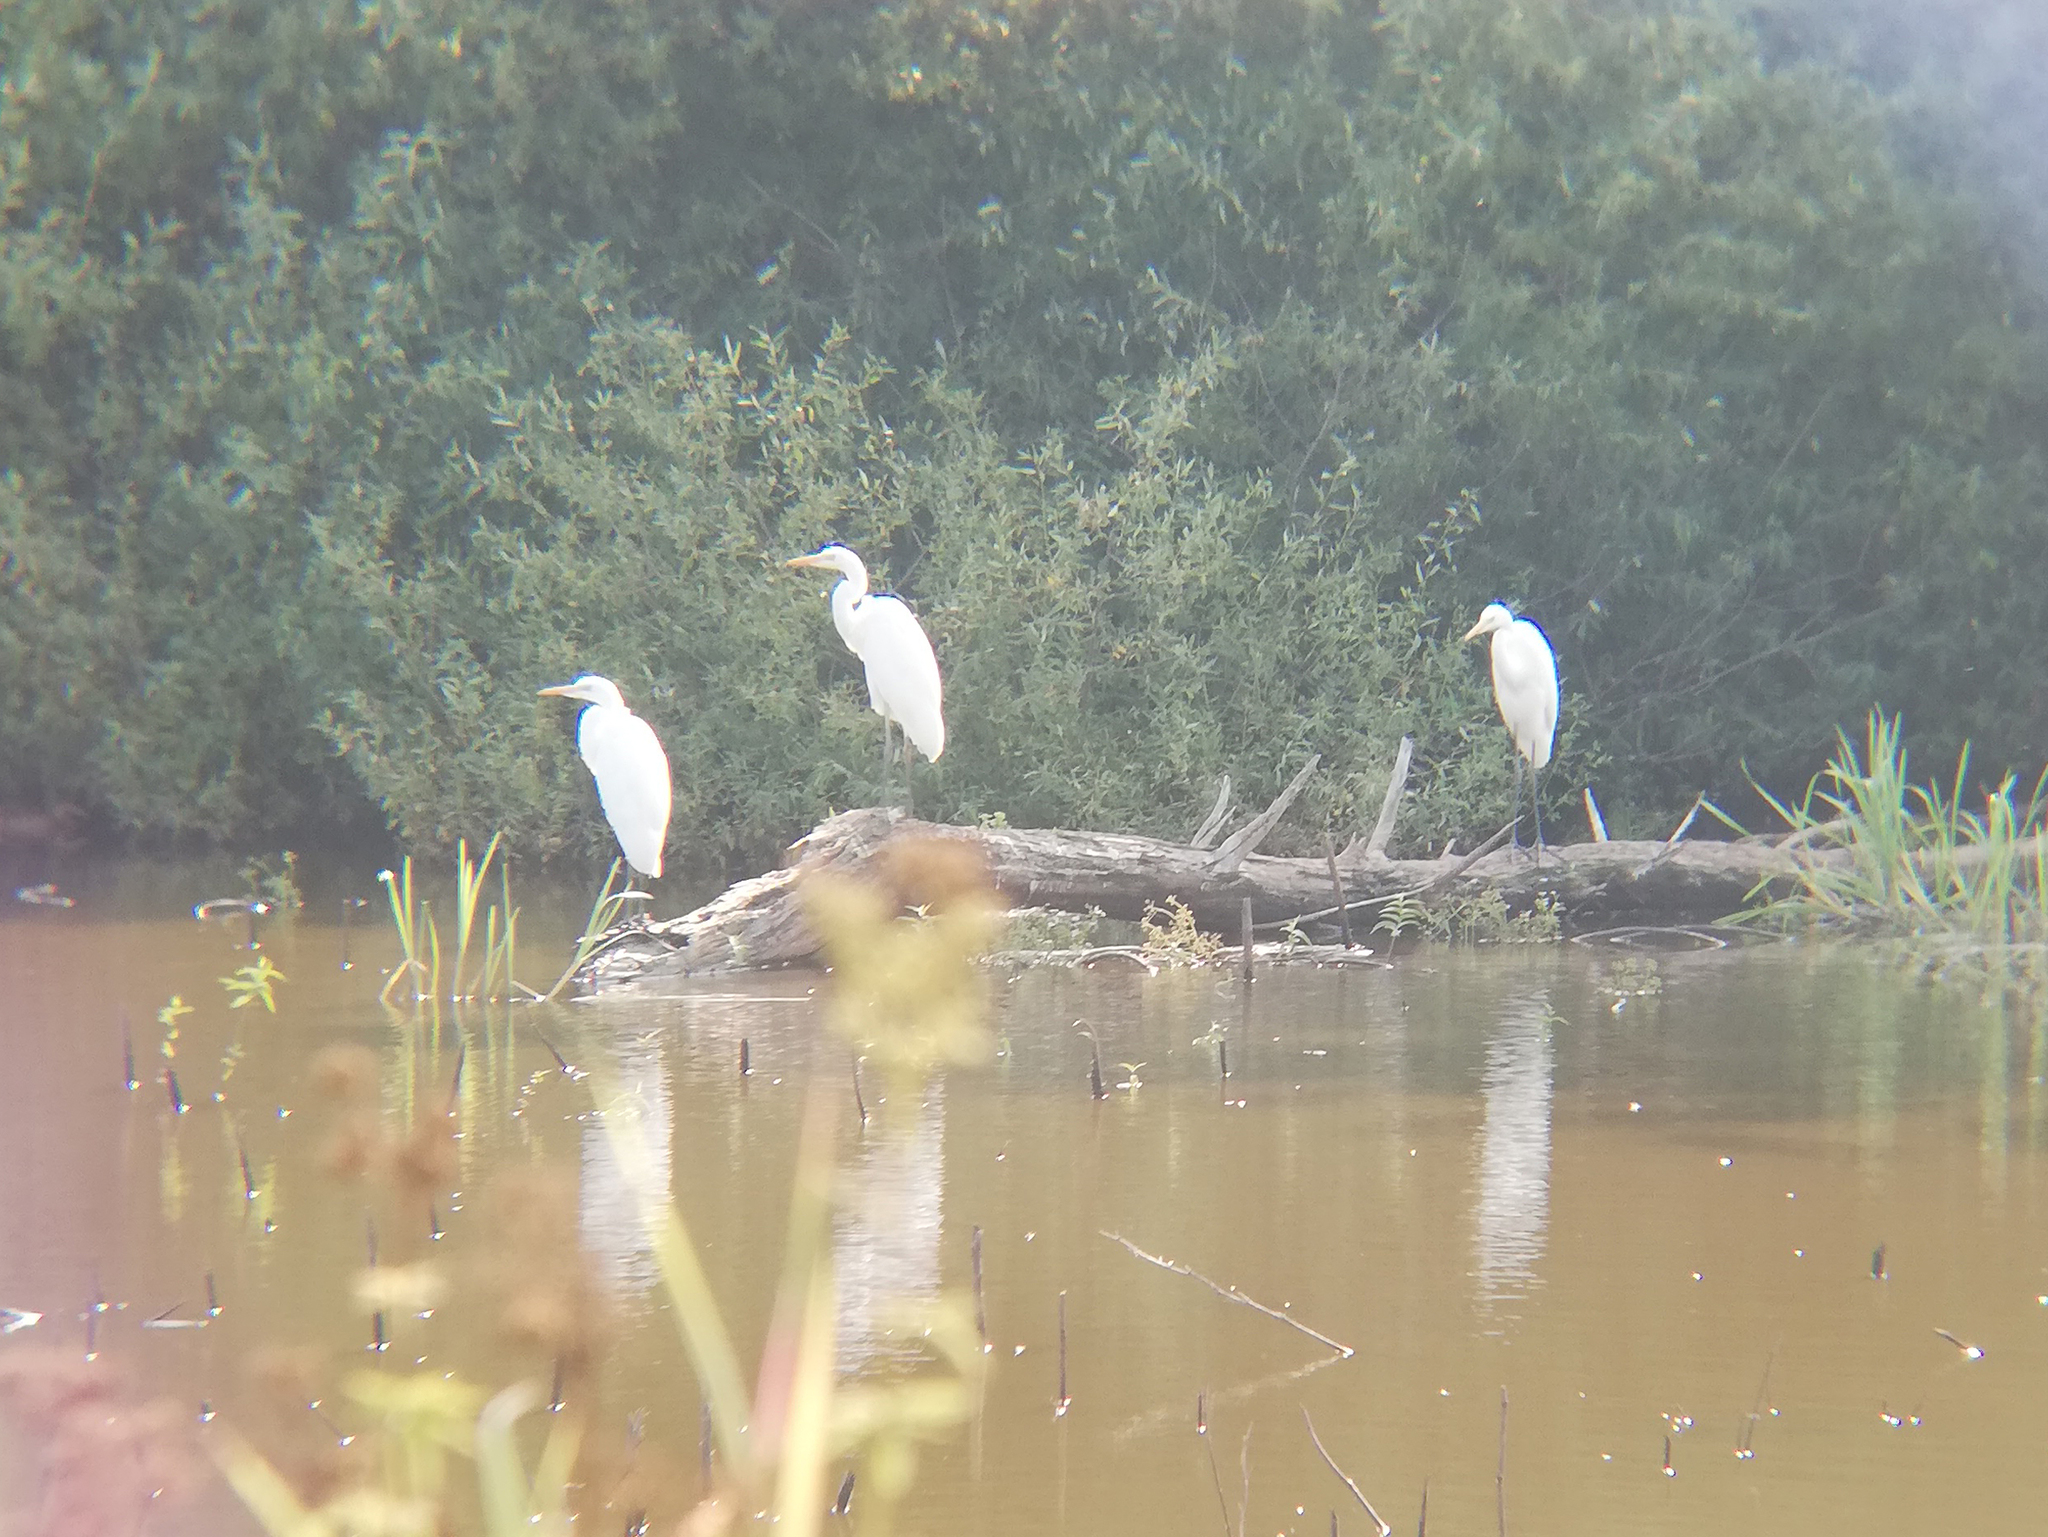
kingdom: Animalia
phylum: Chordata
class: Aves
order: Pelecaniformes
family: Ardeidae
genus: Ardea
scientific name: Ardea alba
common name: Great egret
